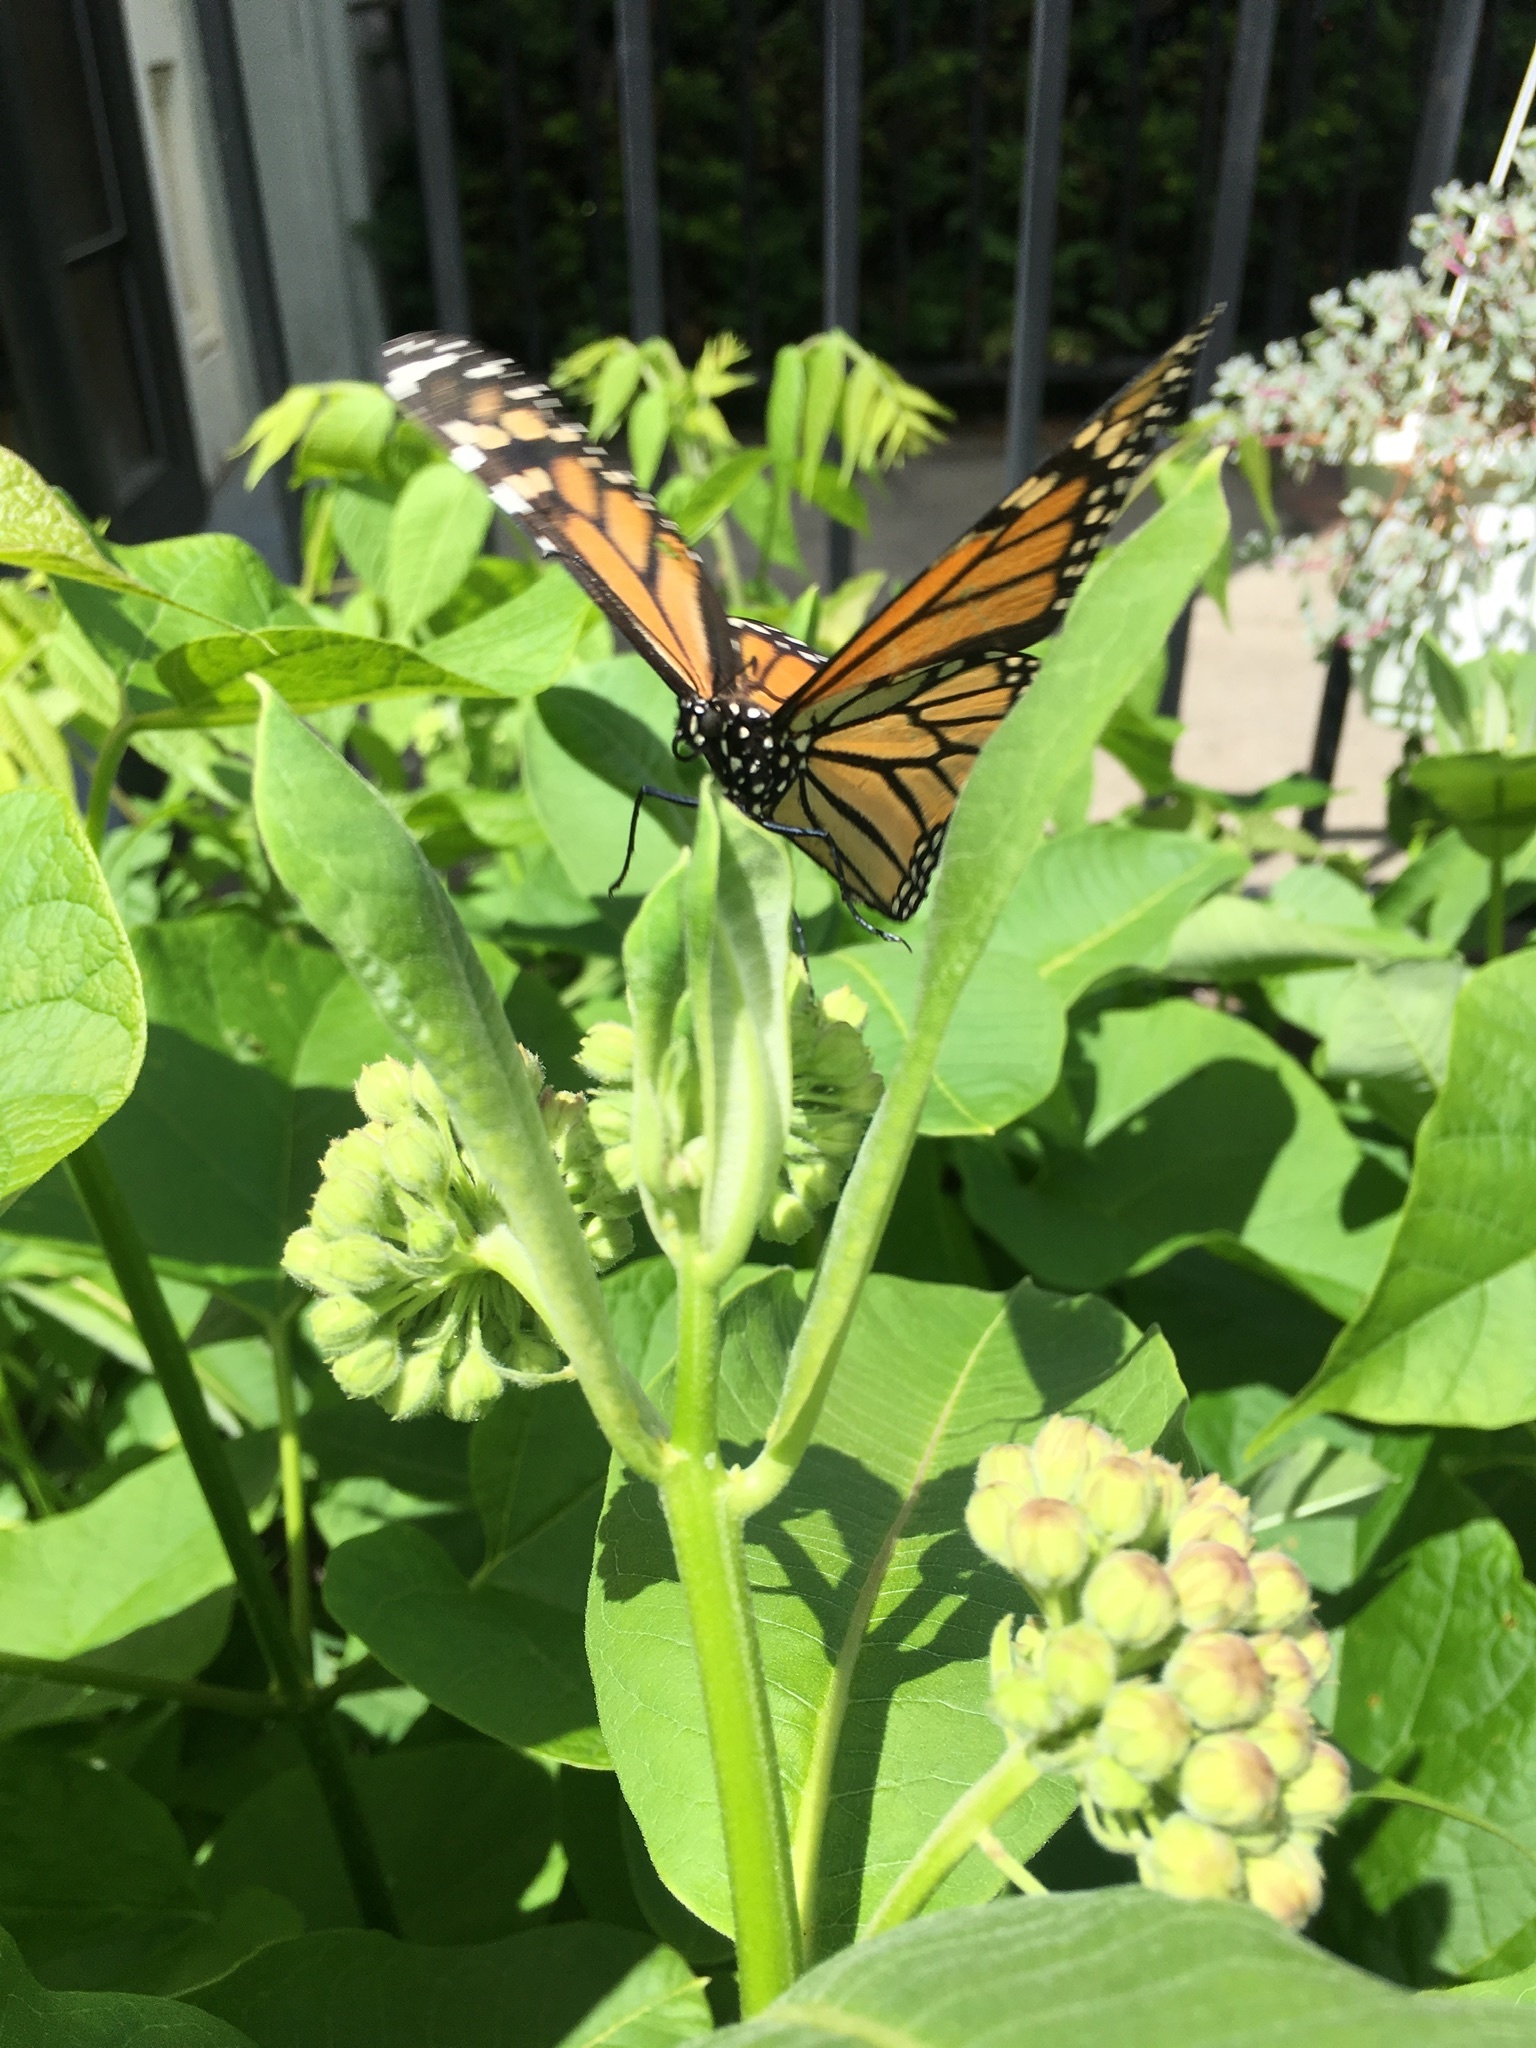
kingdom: Animalia
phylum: Arthropoda
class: Insecta
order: Lepidoptera
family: Nymphalidae
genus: Danaus
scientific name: Danaus plexippus
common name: Monarch
